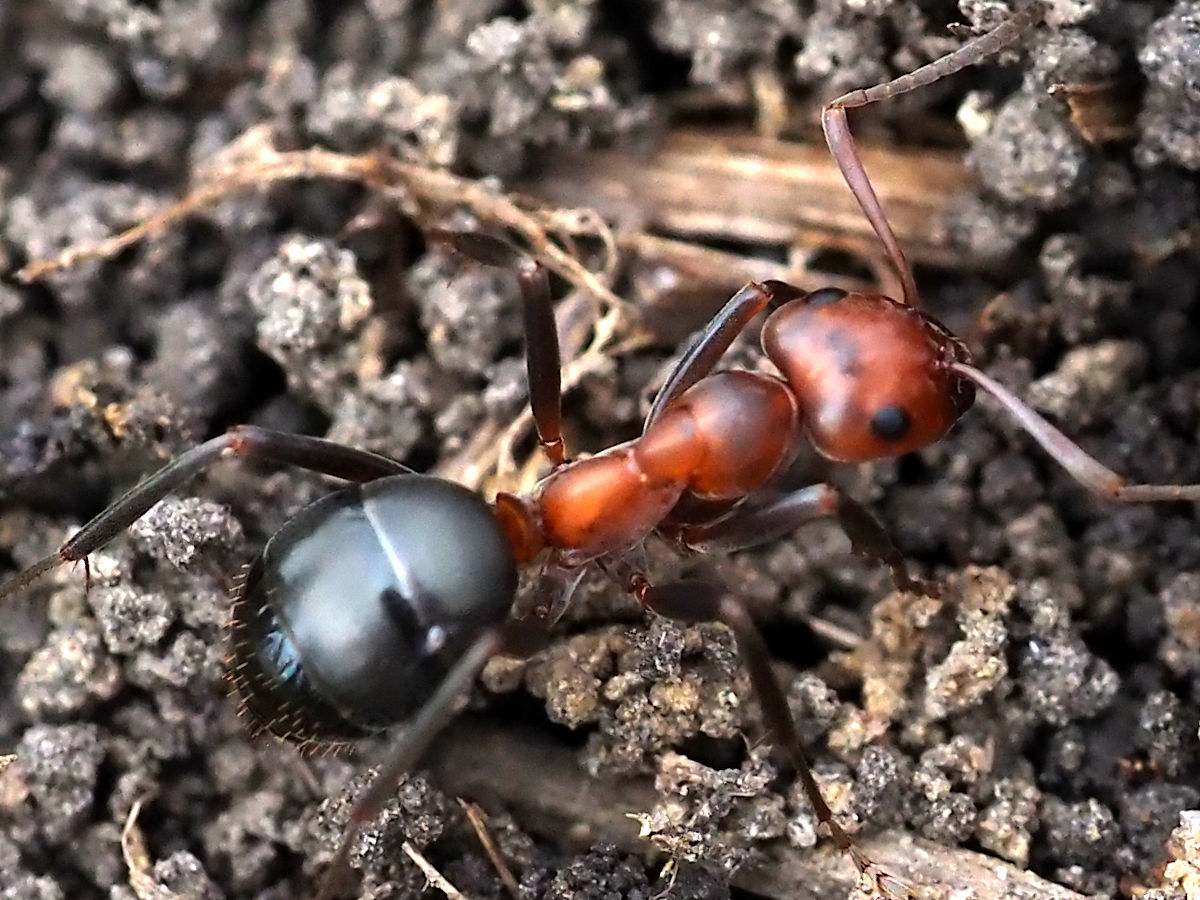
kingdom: Animalia
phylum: Arthropoda
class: Insecta
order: Hymenoptera
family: Formicidae
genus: Formica
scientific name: Formica exsectoides
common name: Allegheny mound ant
